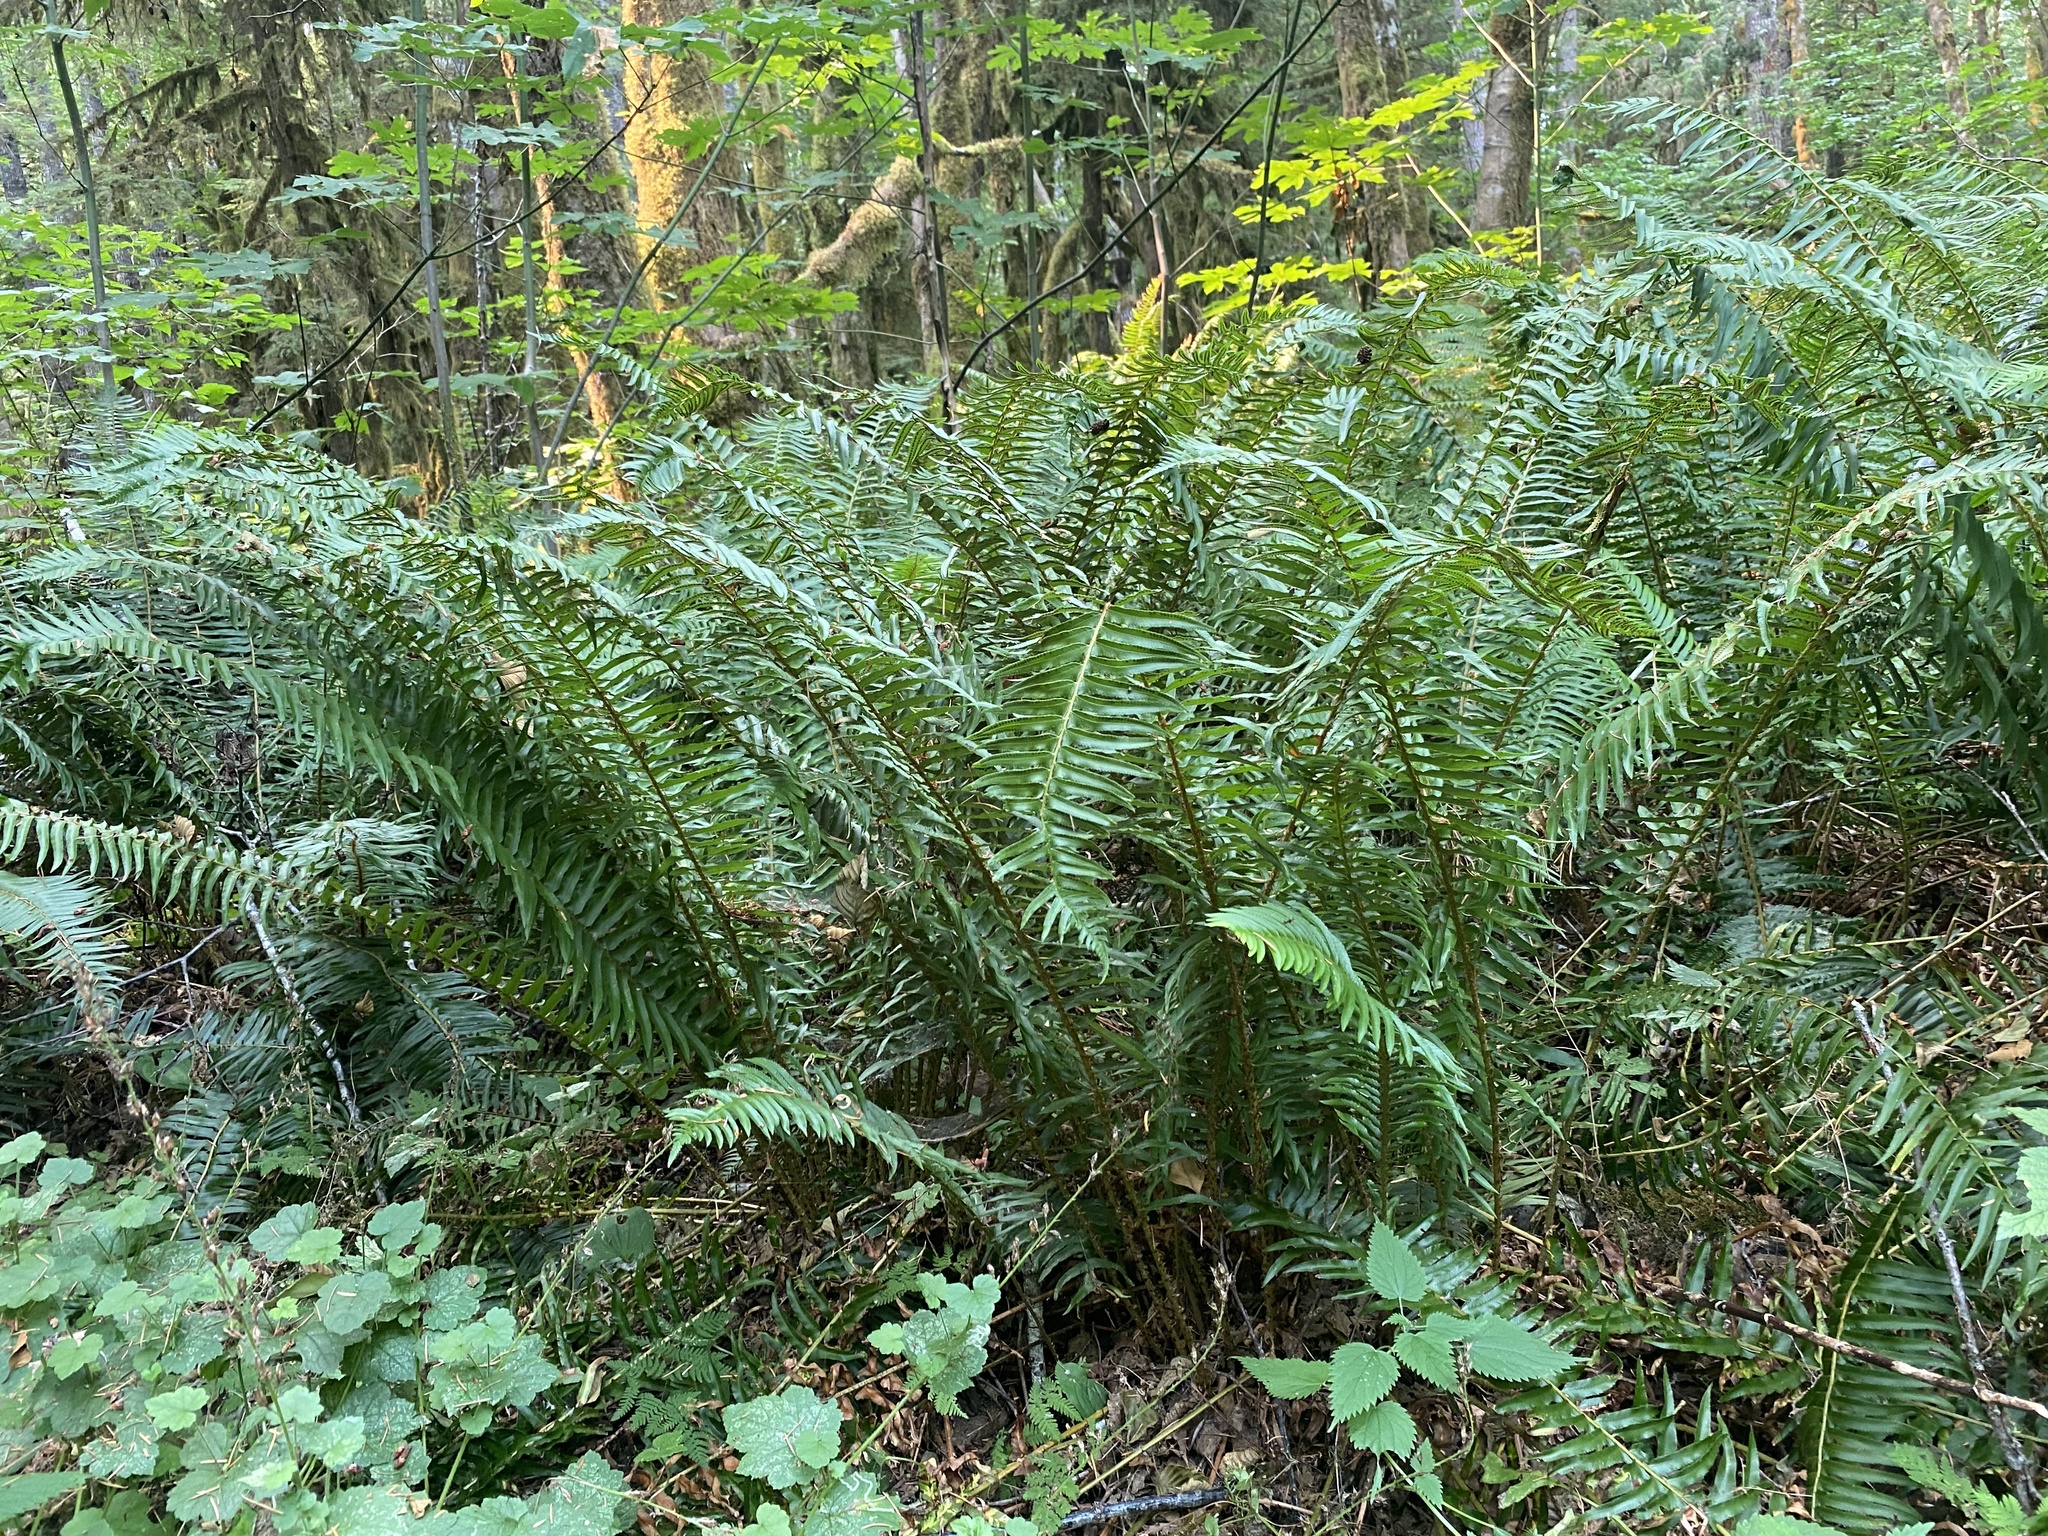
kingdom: Plantae
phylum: Tracheophyta
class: Polypodiopsida
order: Polypodiales
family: Dryopteridaceae
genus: Polystichum
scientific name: Polystichum munitum
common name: Western sword-fern
